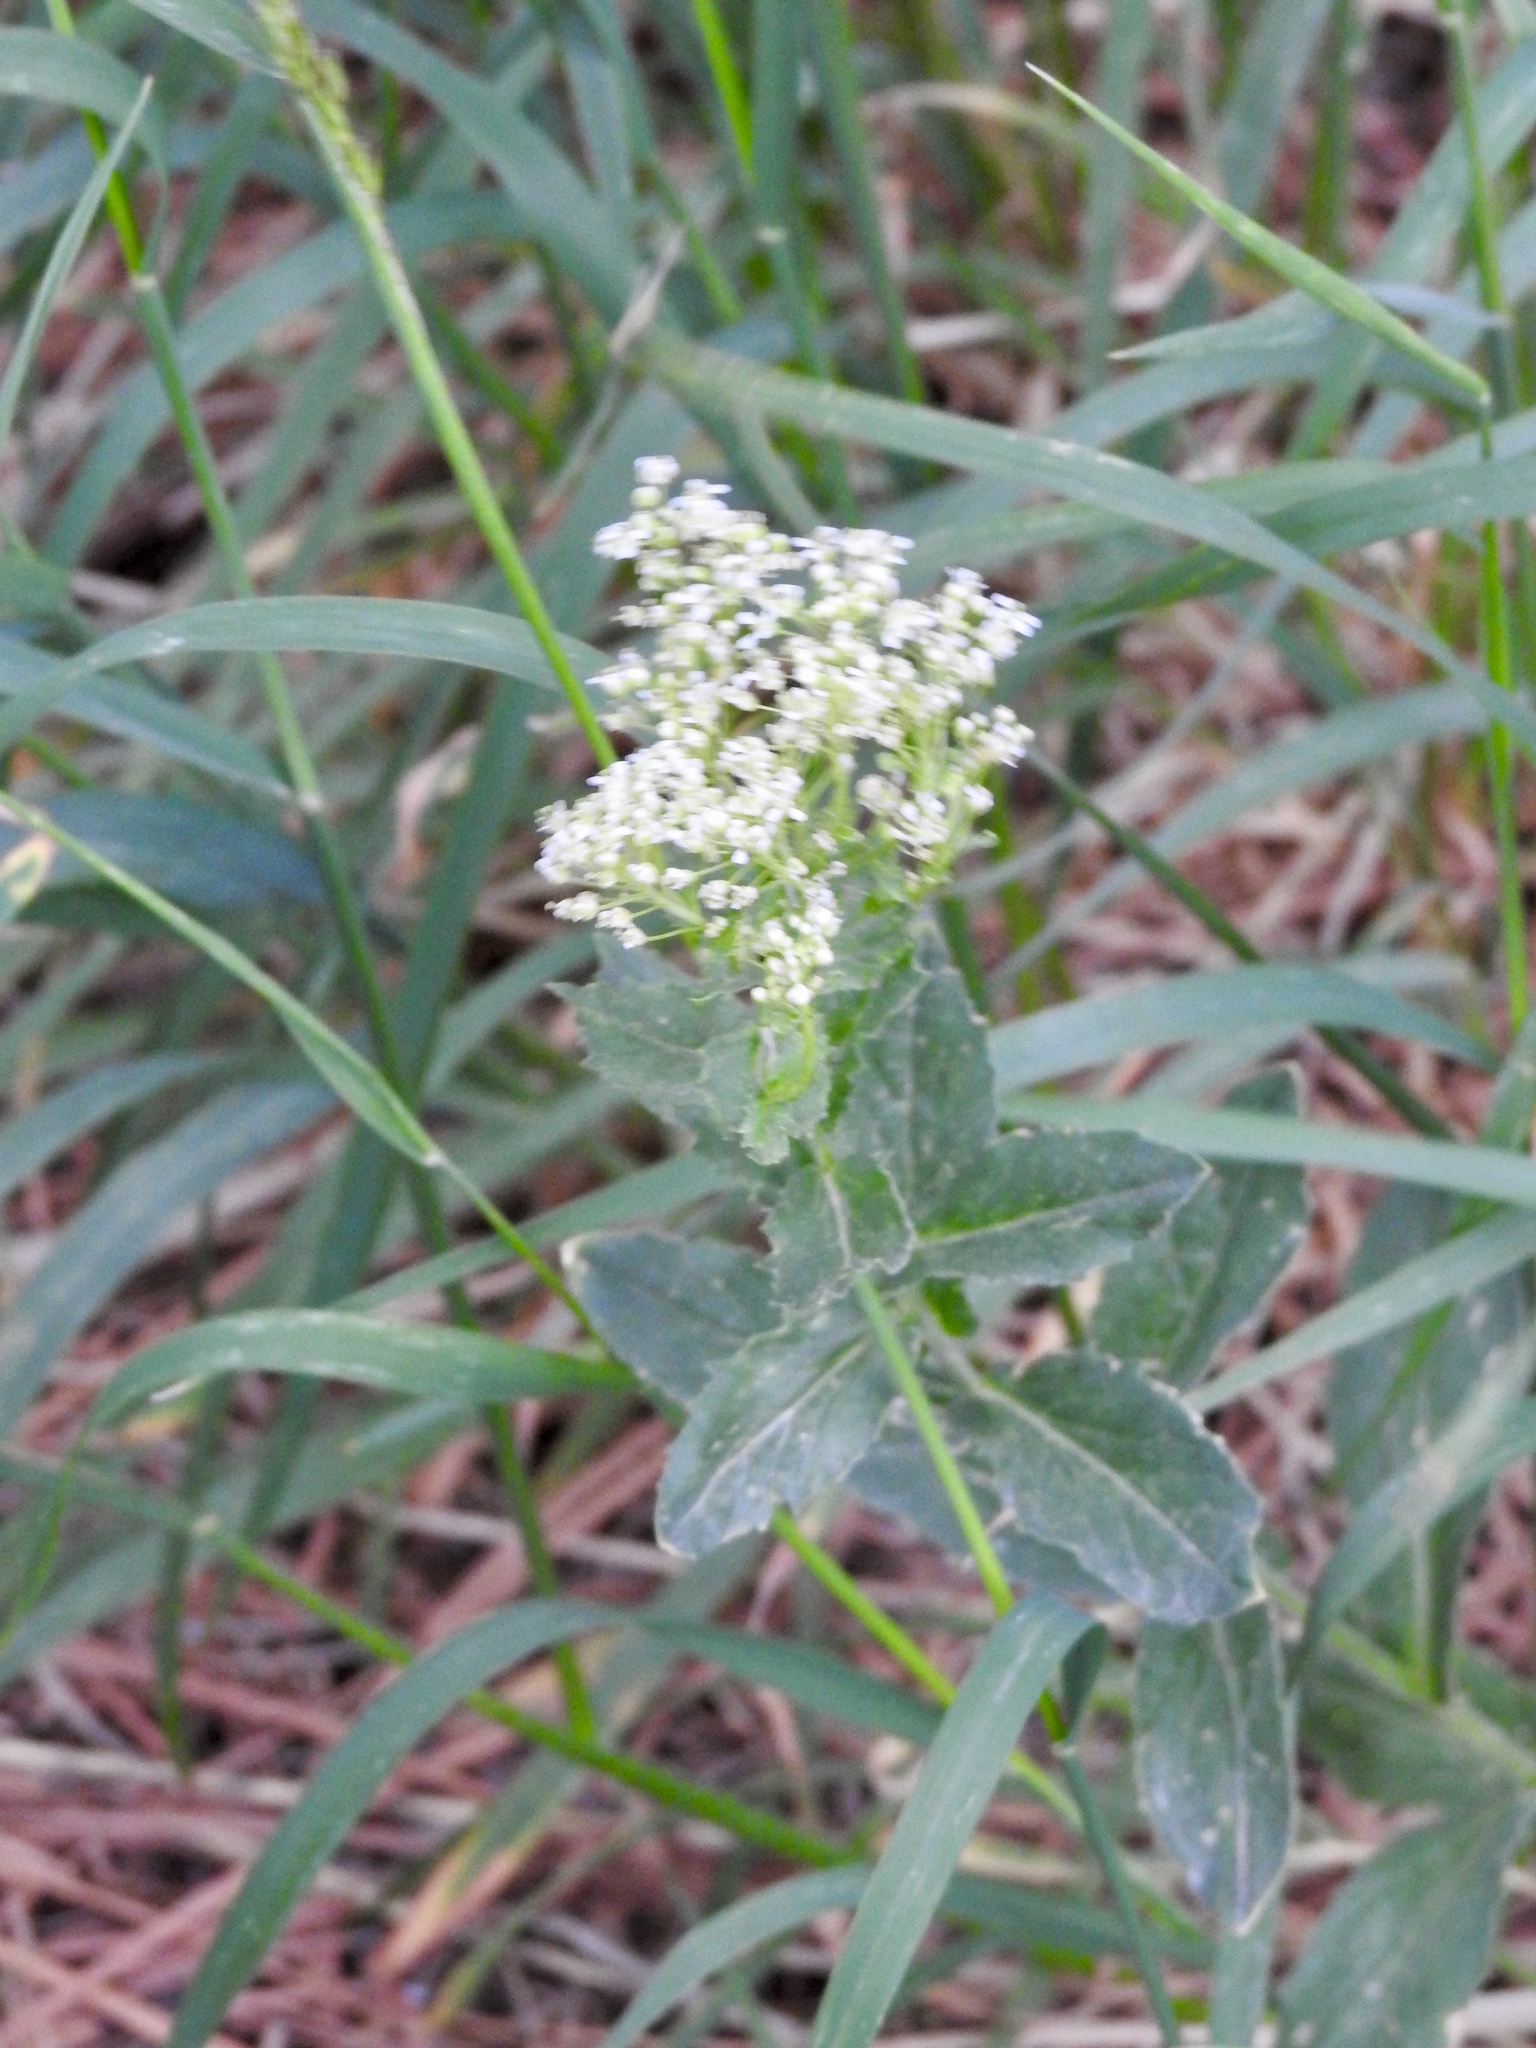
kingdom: Plantae
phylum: Tracheophyta
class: Magnoliopsida
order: Brassicales
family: Brassicaceae
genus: Lepidium
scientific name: Lepidium draba
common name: Hoary cress
